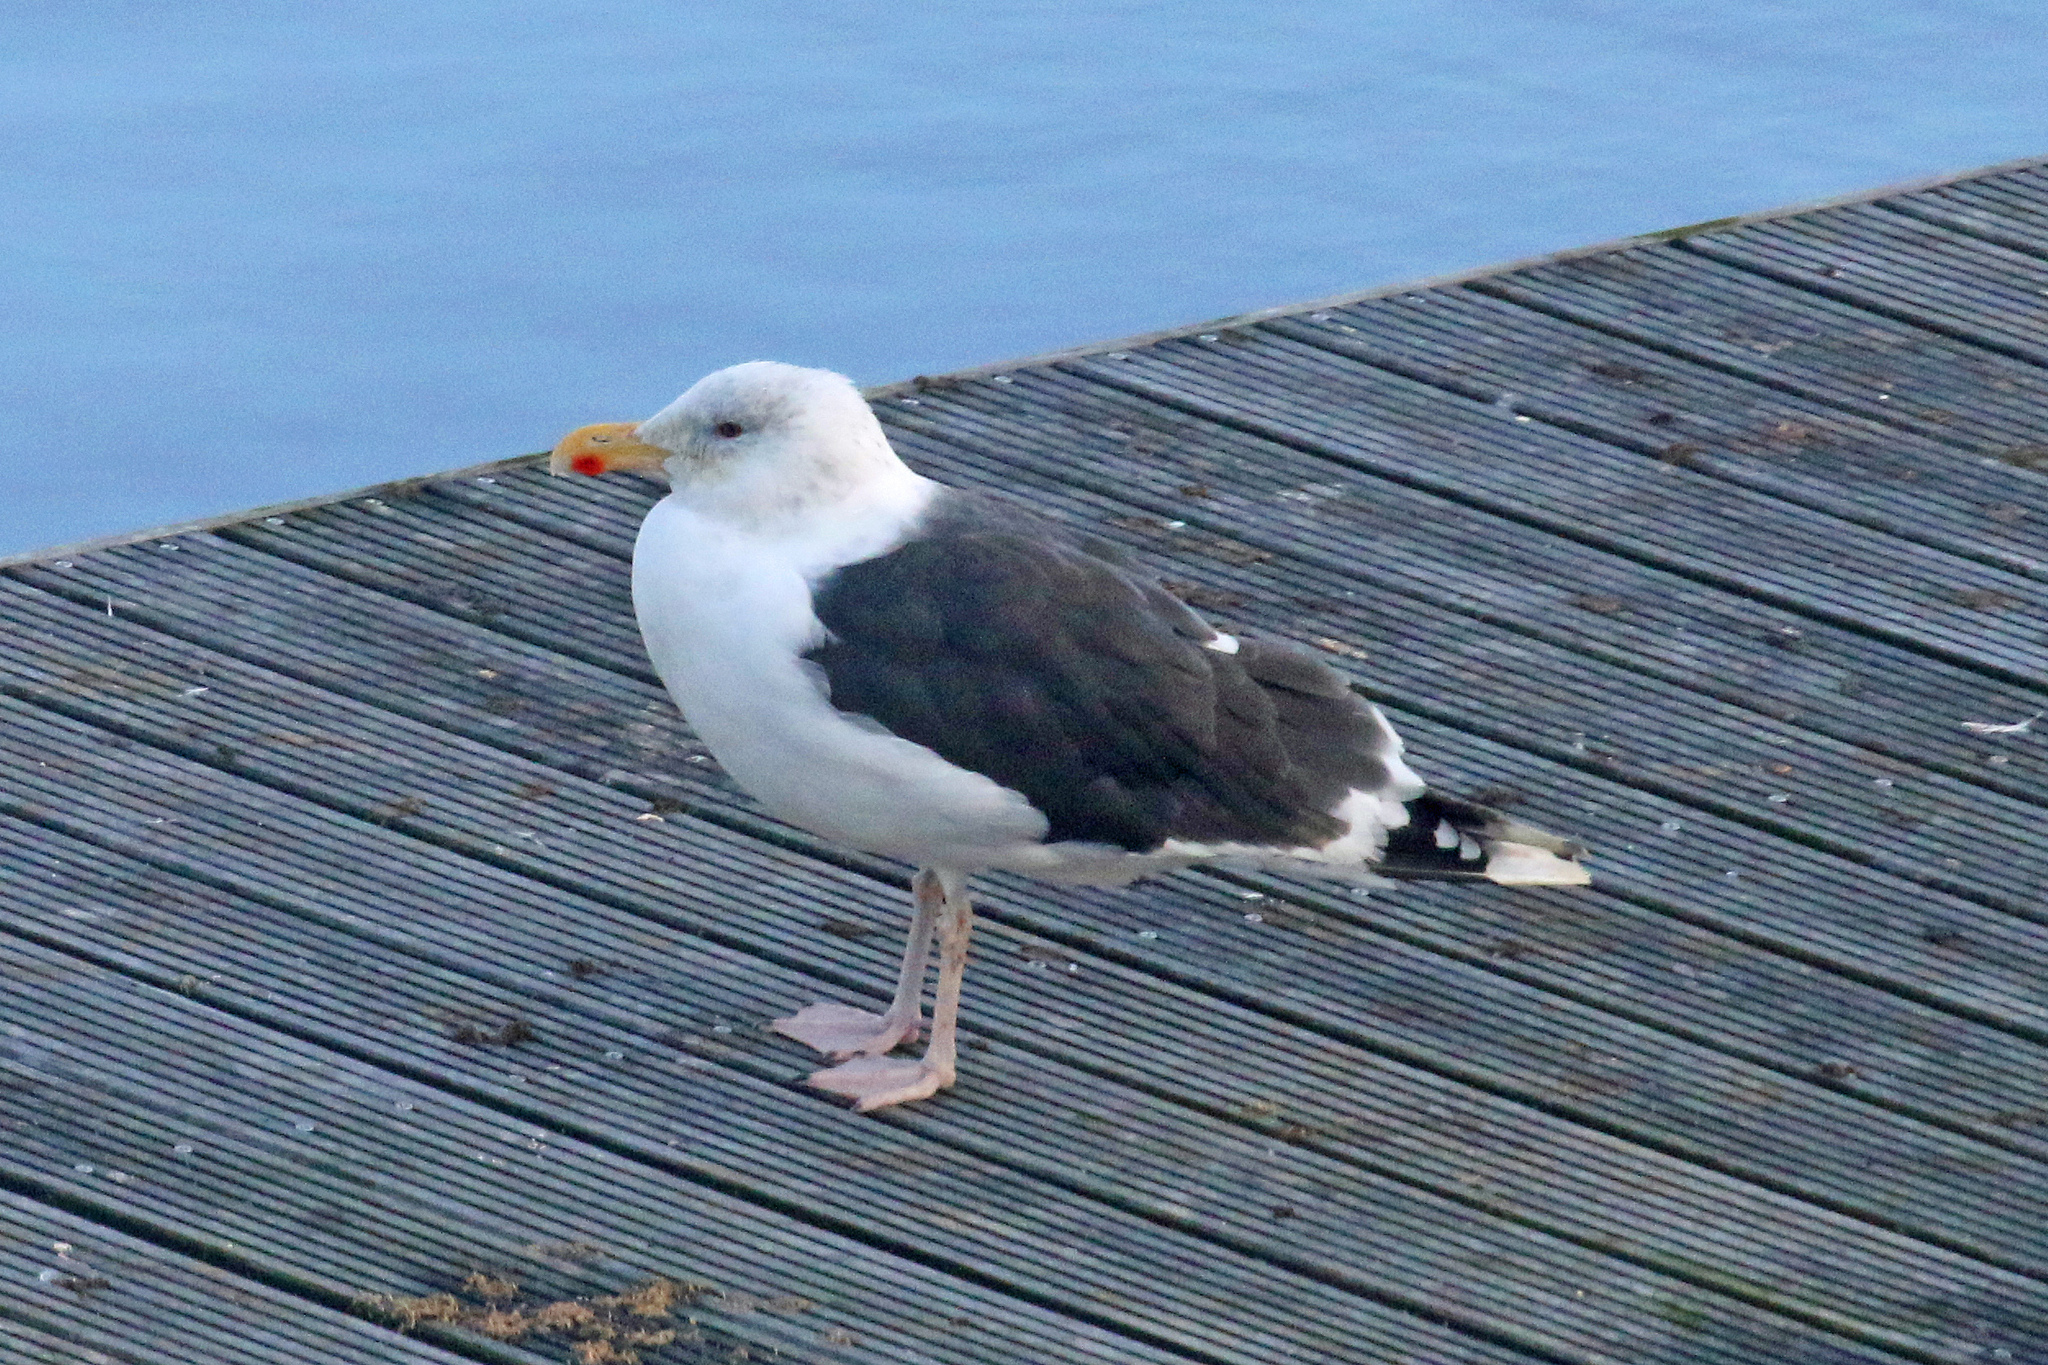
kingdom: Animalia
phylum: Chordata
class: Aves
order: Charadriiformes
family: Laridae
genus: Larus
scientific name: Larus marinus
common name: Great black-backed gull
